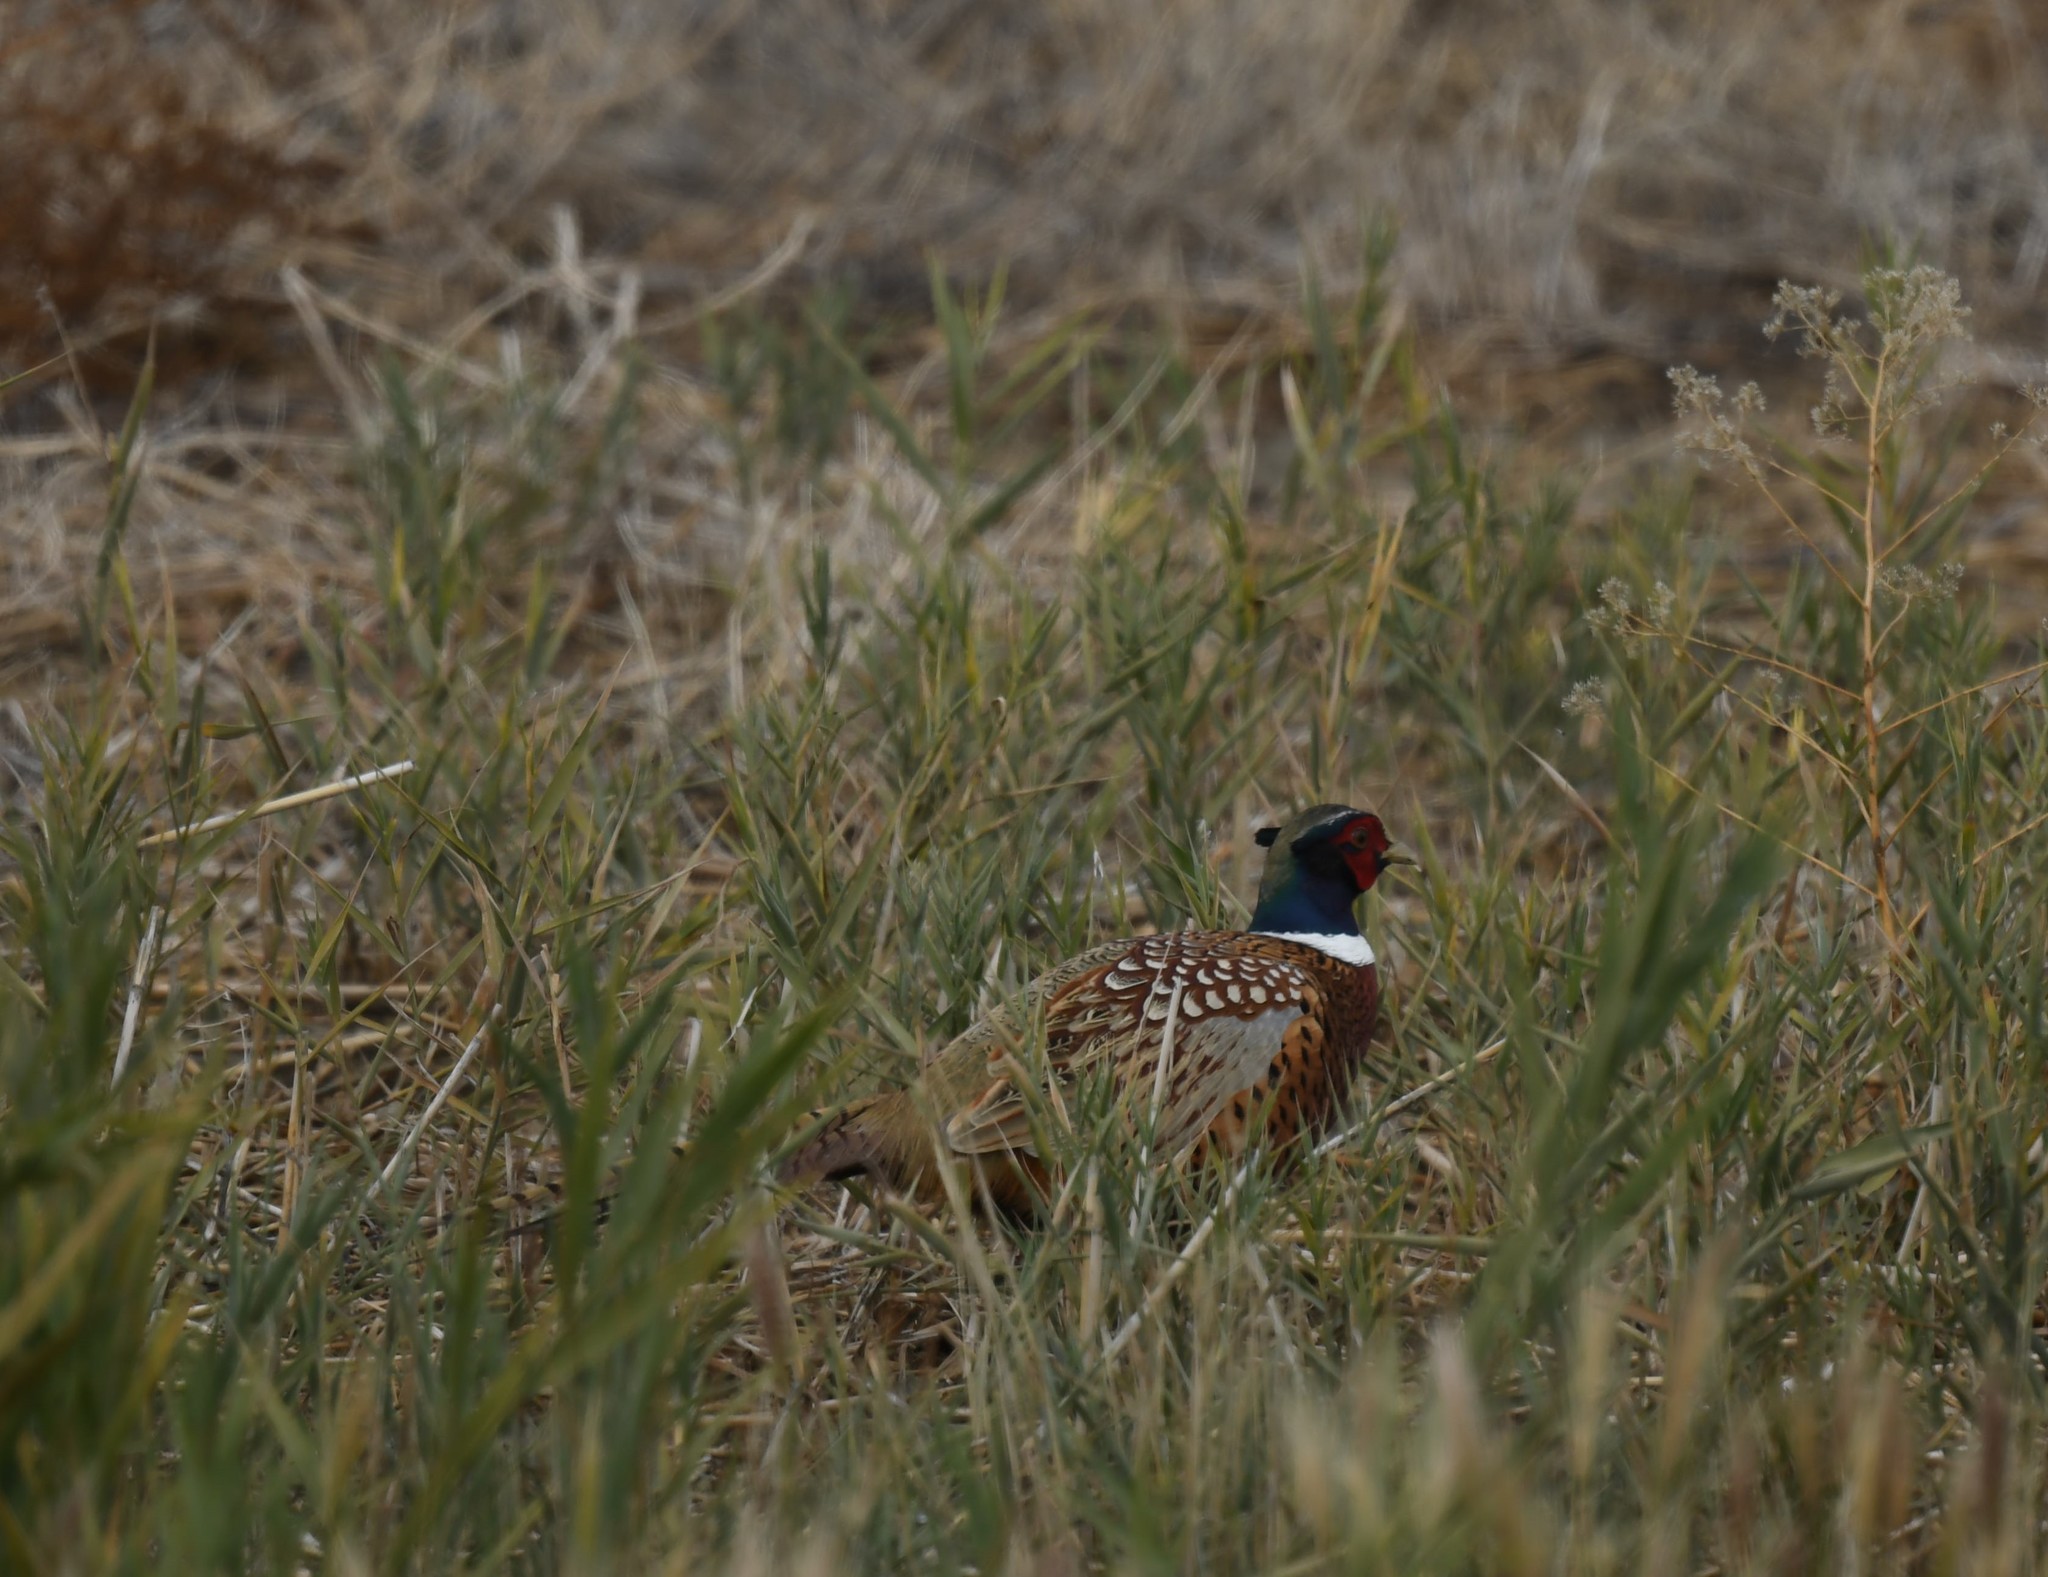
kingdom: Animalia
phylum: Chordata
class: Aves
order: Galliformes
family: Phasianidae
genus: Phasianus
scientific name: Phasianus colchicus
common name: Common pheasant
